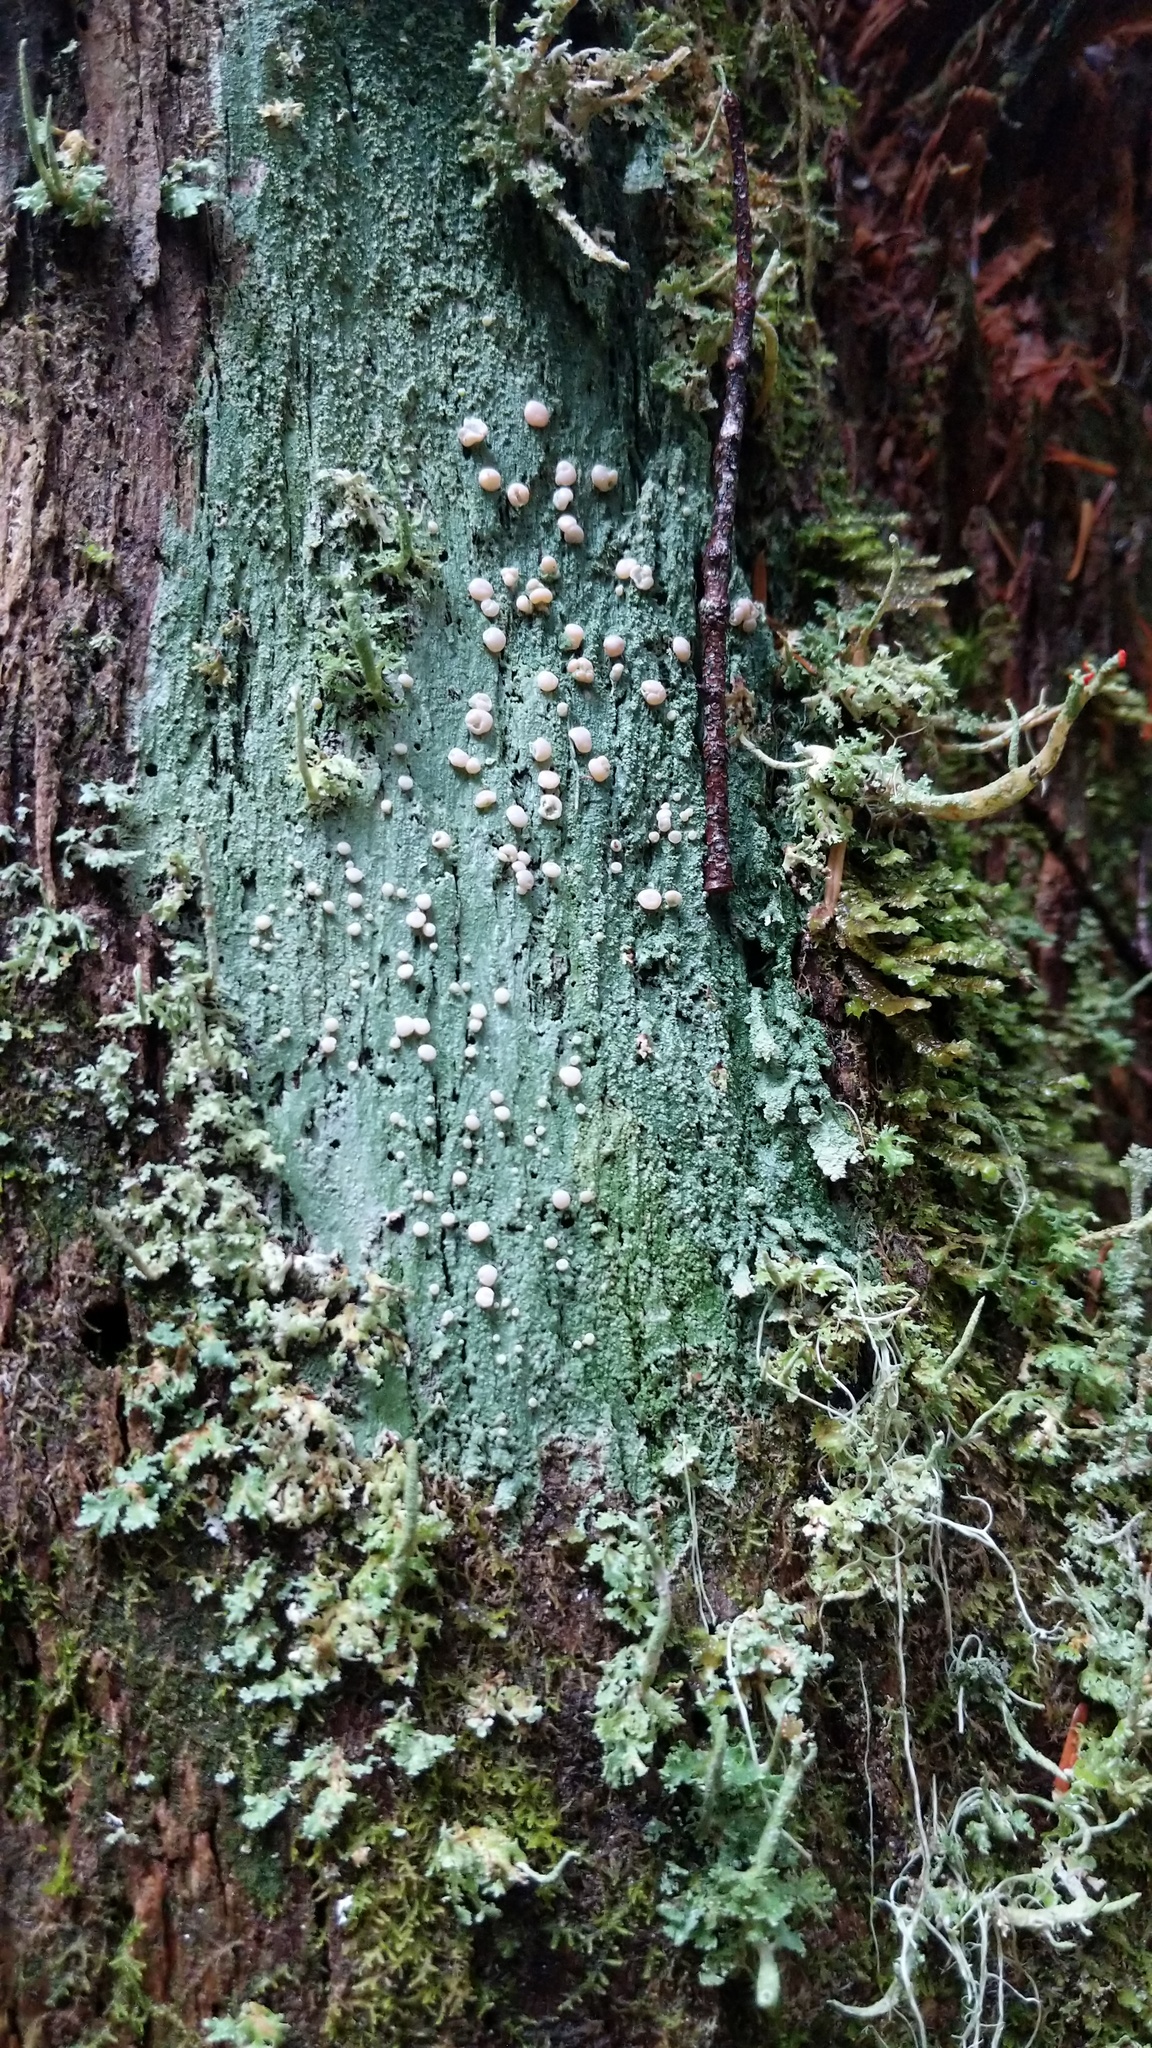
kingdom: Fungi
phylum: Ascomycota
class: Lecanoromycetes
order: Pertusariales
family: Icmadophilaceae
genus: Icmadophila
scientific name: Icmadophila ericetorum
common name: Candy lichen
